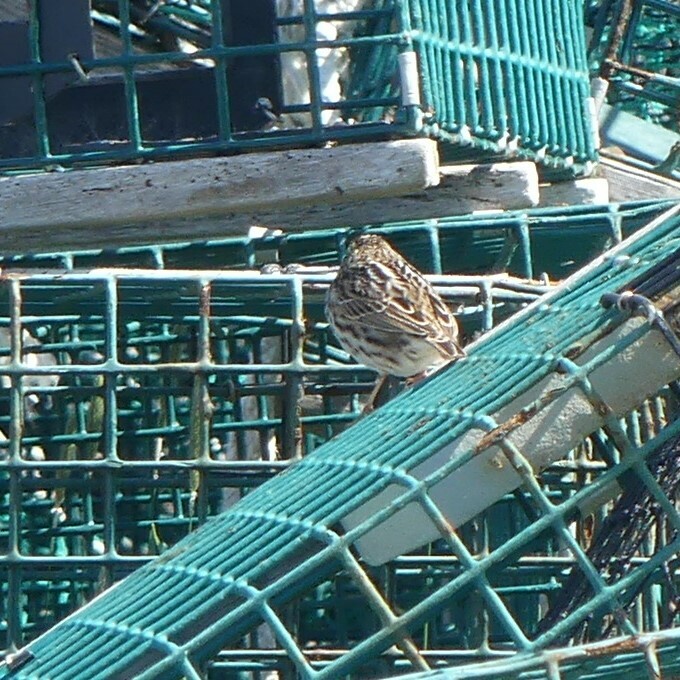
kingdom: Animalia
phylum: Chordata
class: Aves
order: Passeriformes
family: Passerellidae
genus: Passerculus
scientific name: Passerculus sandwichensis
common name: Savannah sparrow
